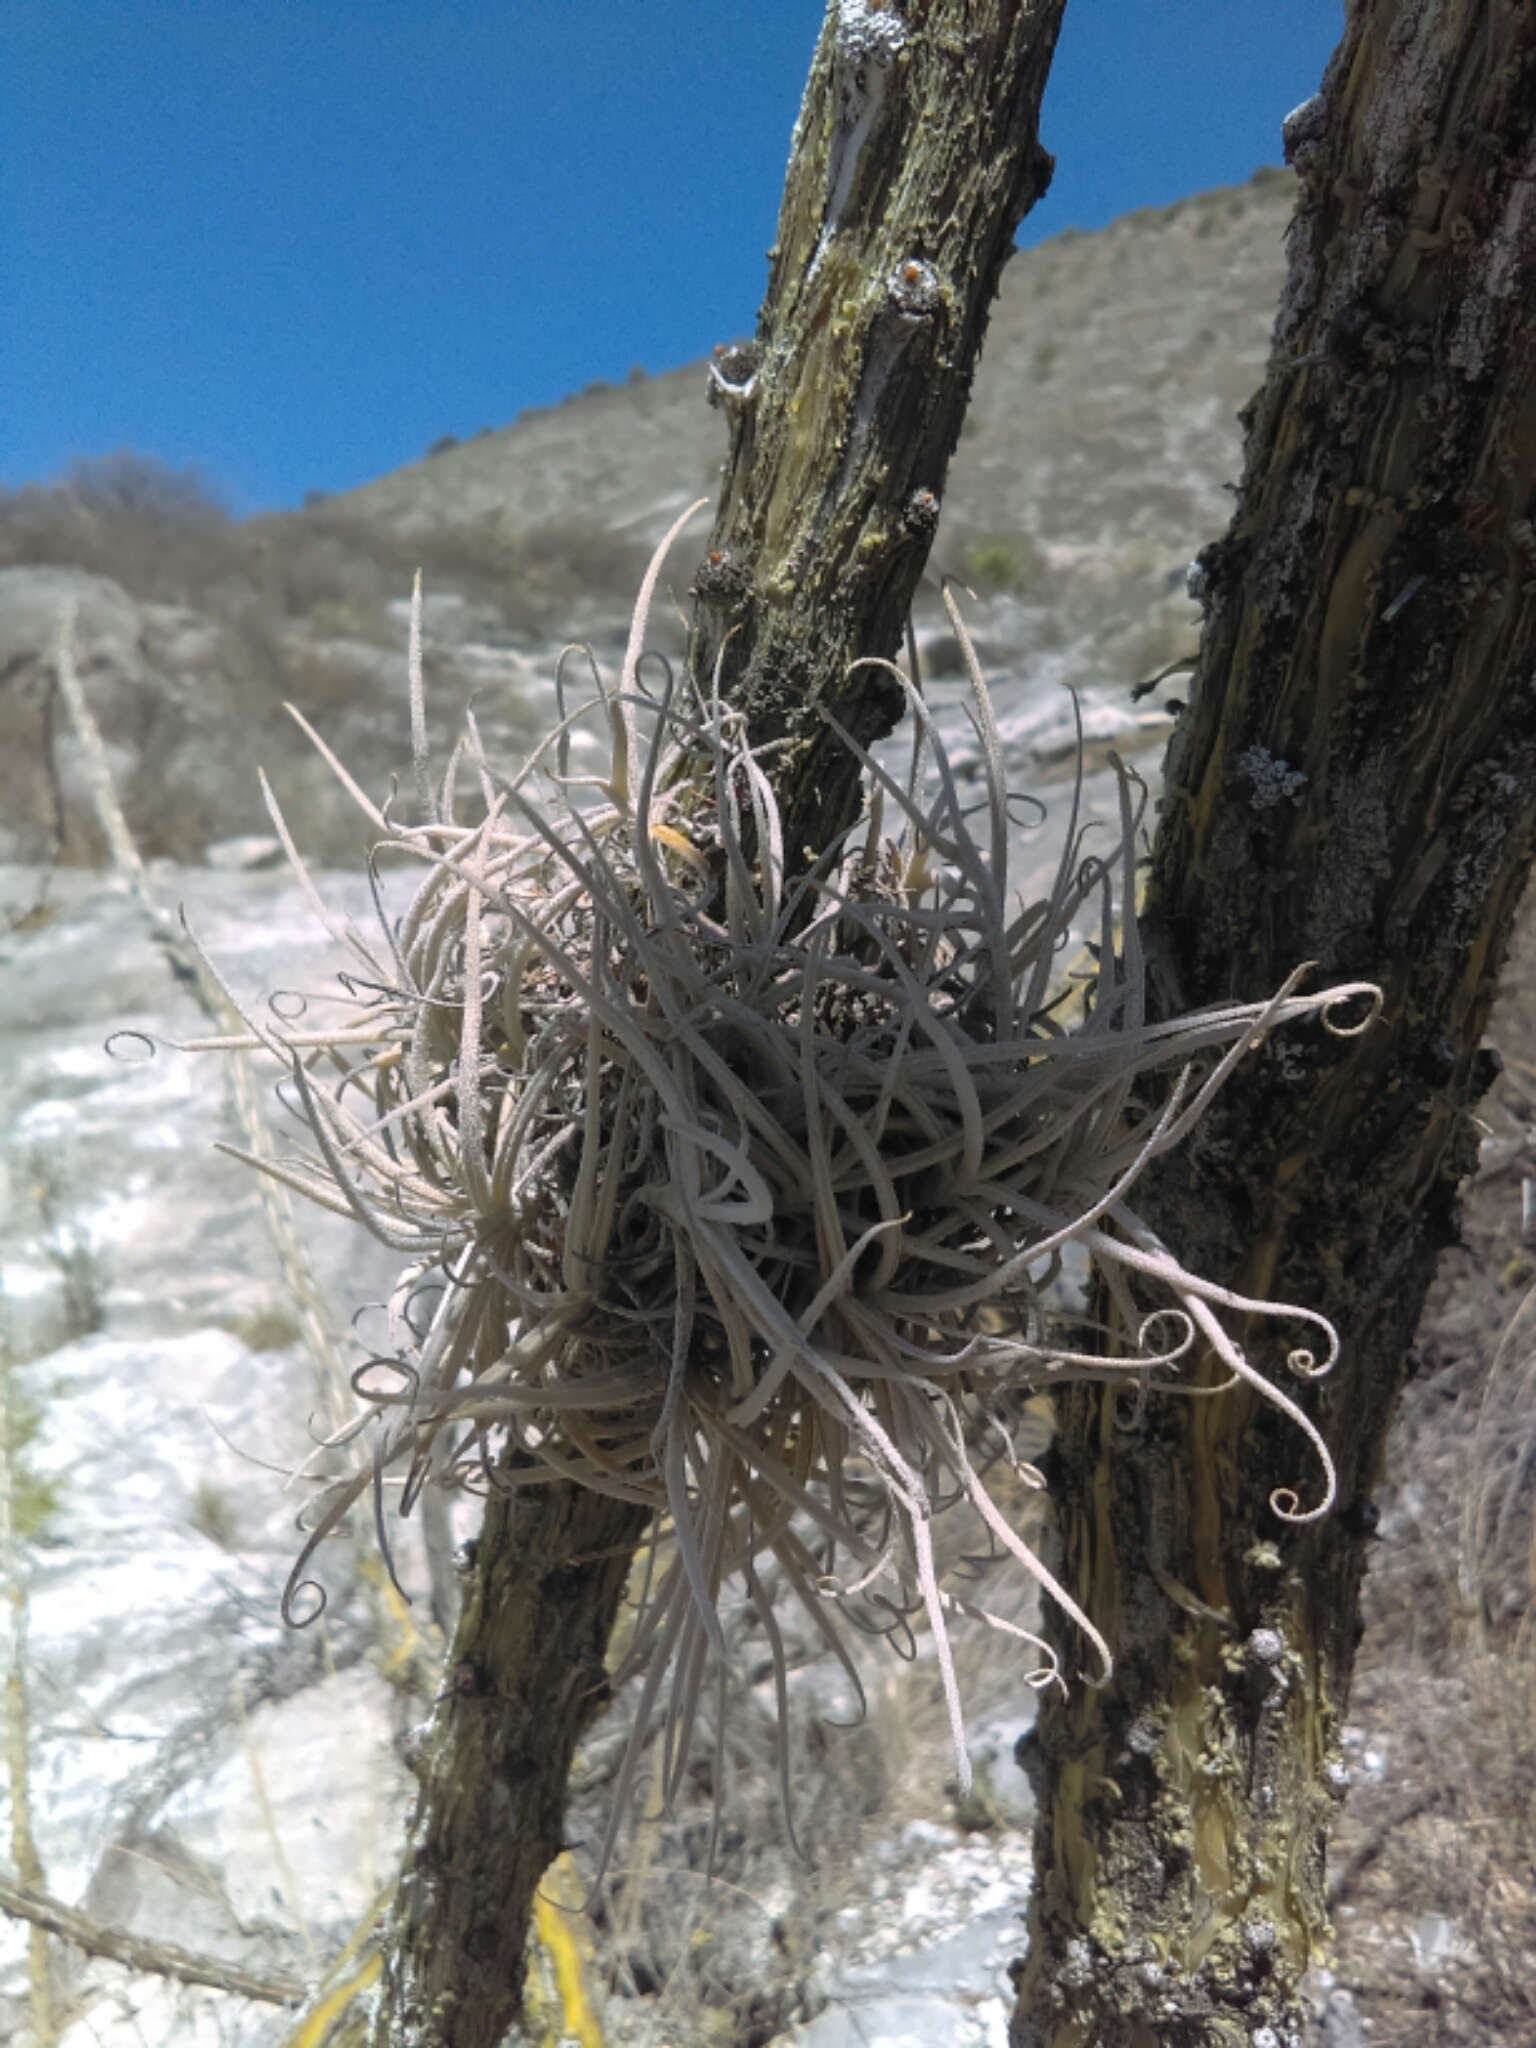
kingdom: Plantae
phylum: Tracheophyta
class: Liliopsida
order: Poales
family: Bromeliaceae
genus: Tillandsia
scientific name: Tillandsia recurvata
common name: Small ballmoss
